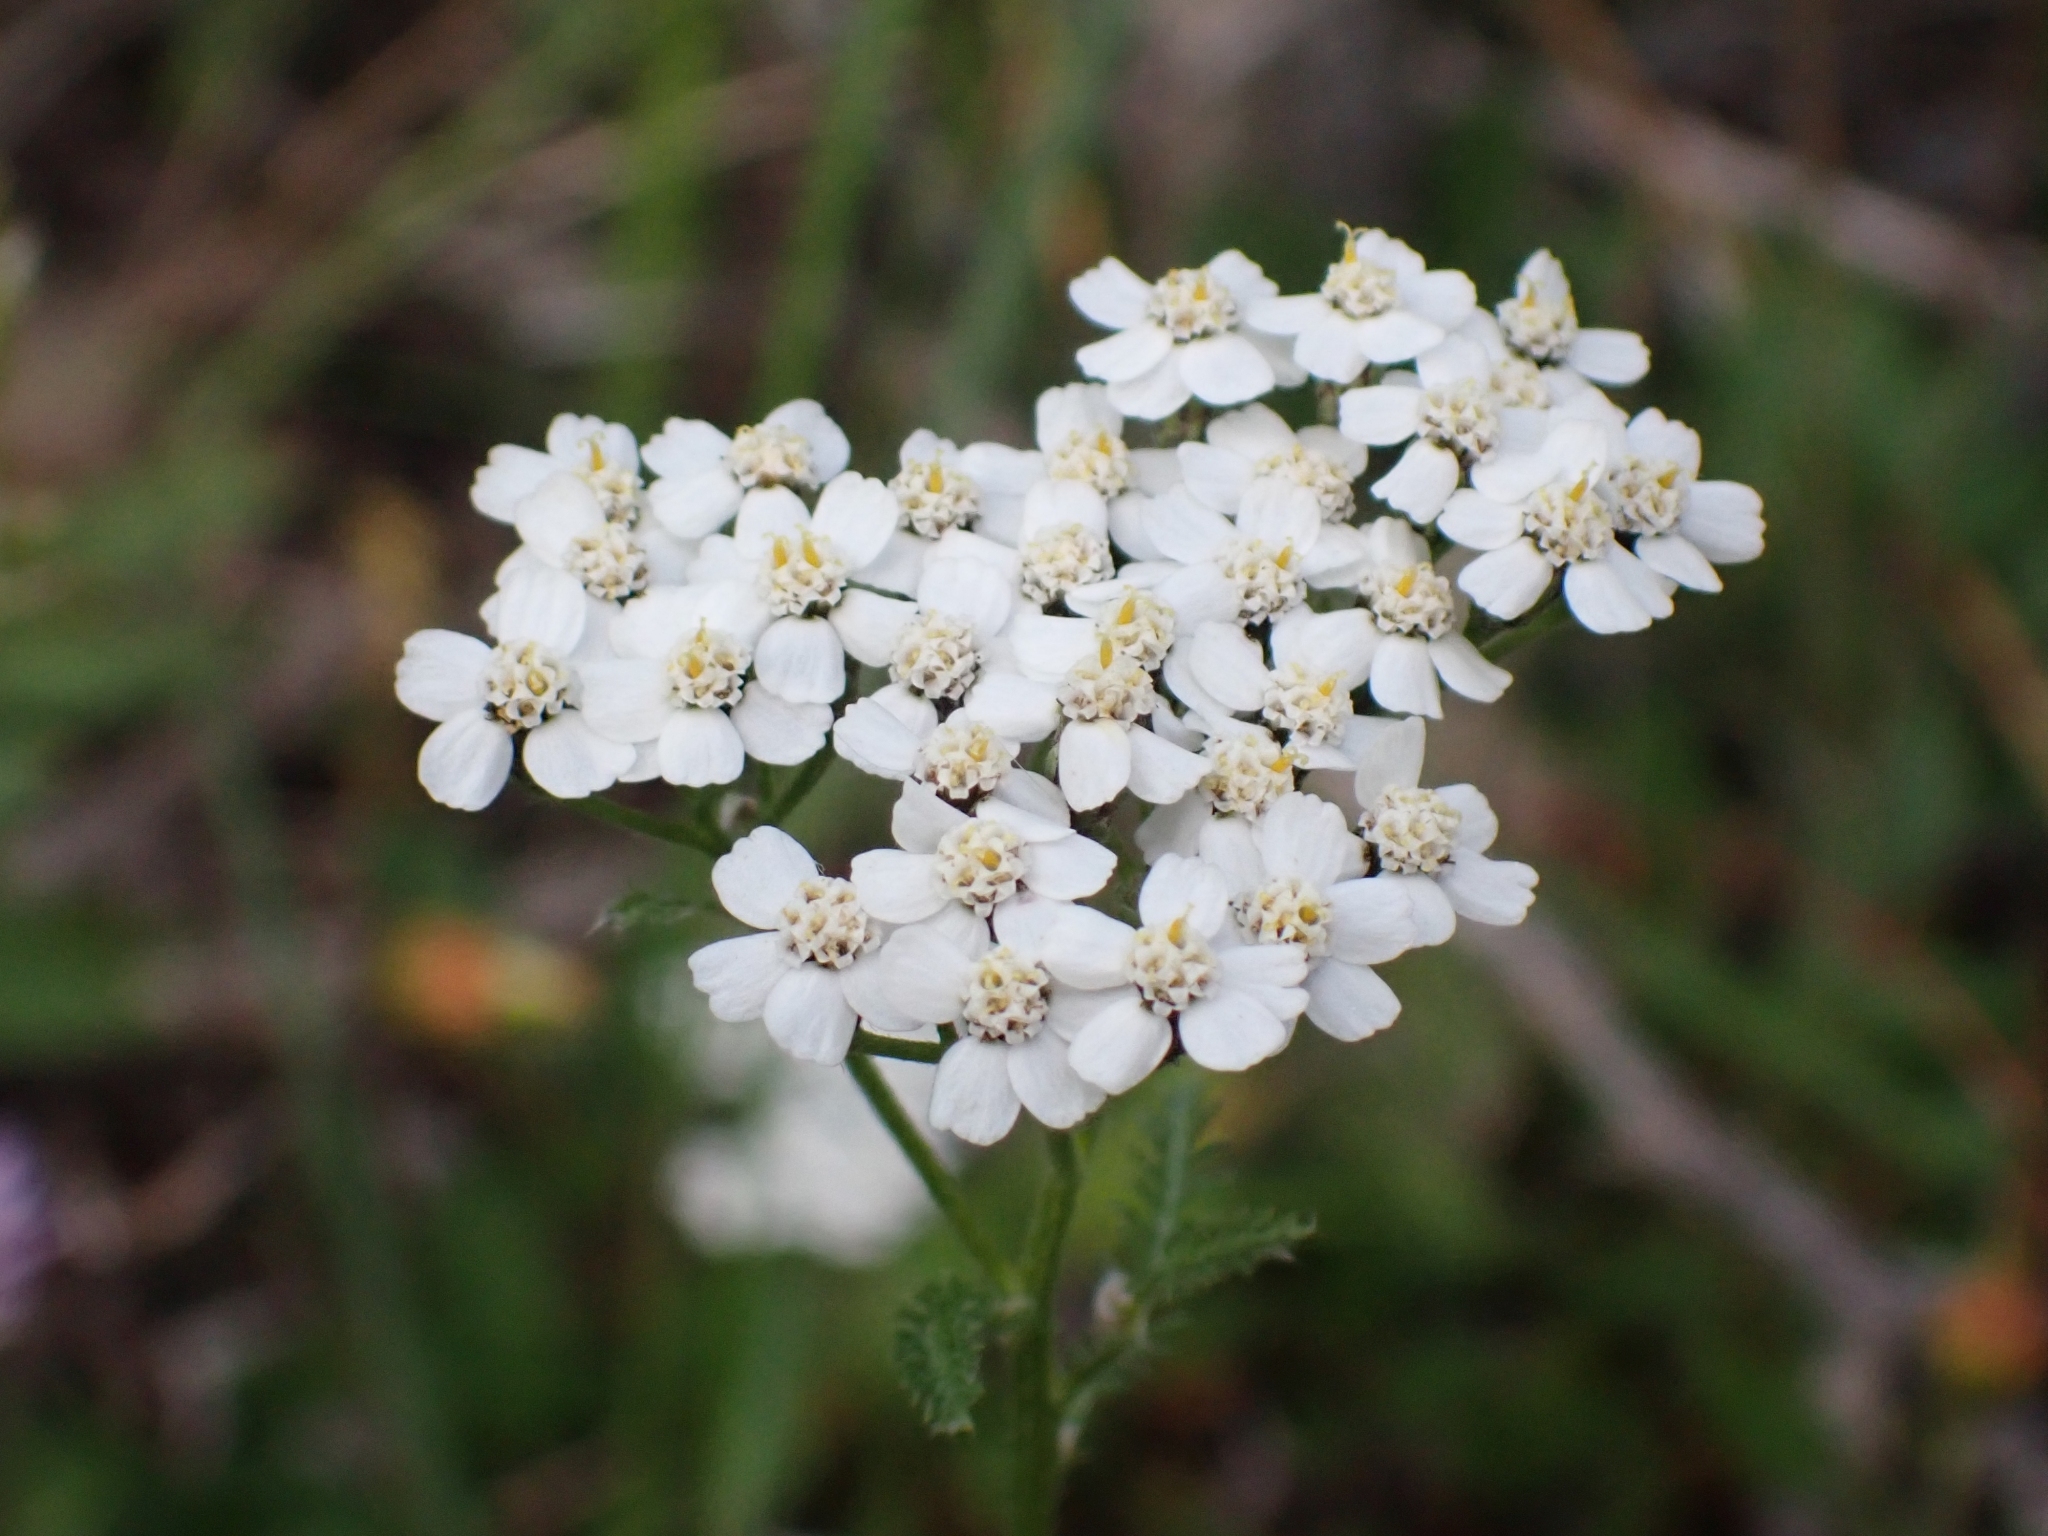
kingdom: Plantae
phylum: Tracheophyta
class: Magnoliopsida
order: Asterales
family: Asteraceae
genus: Achillea
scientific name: Achillea millefolium
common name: Yarrow
